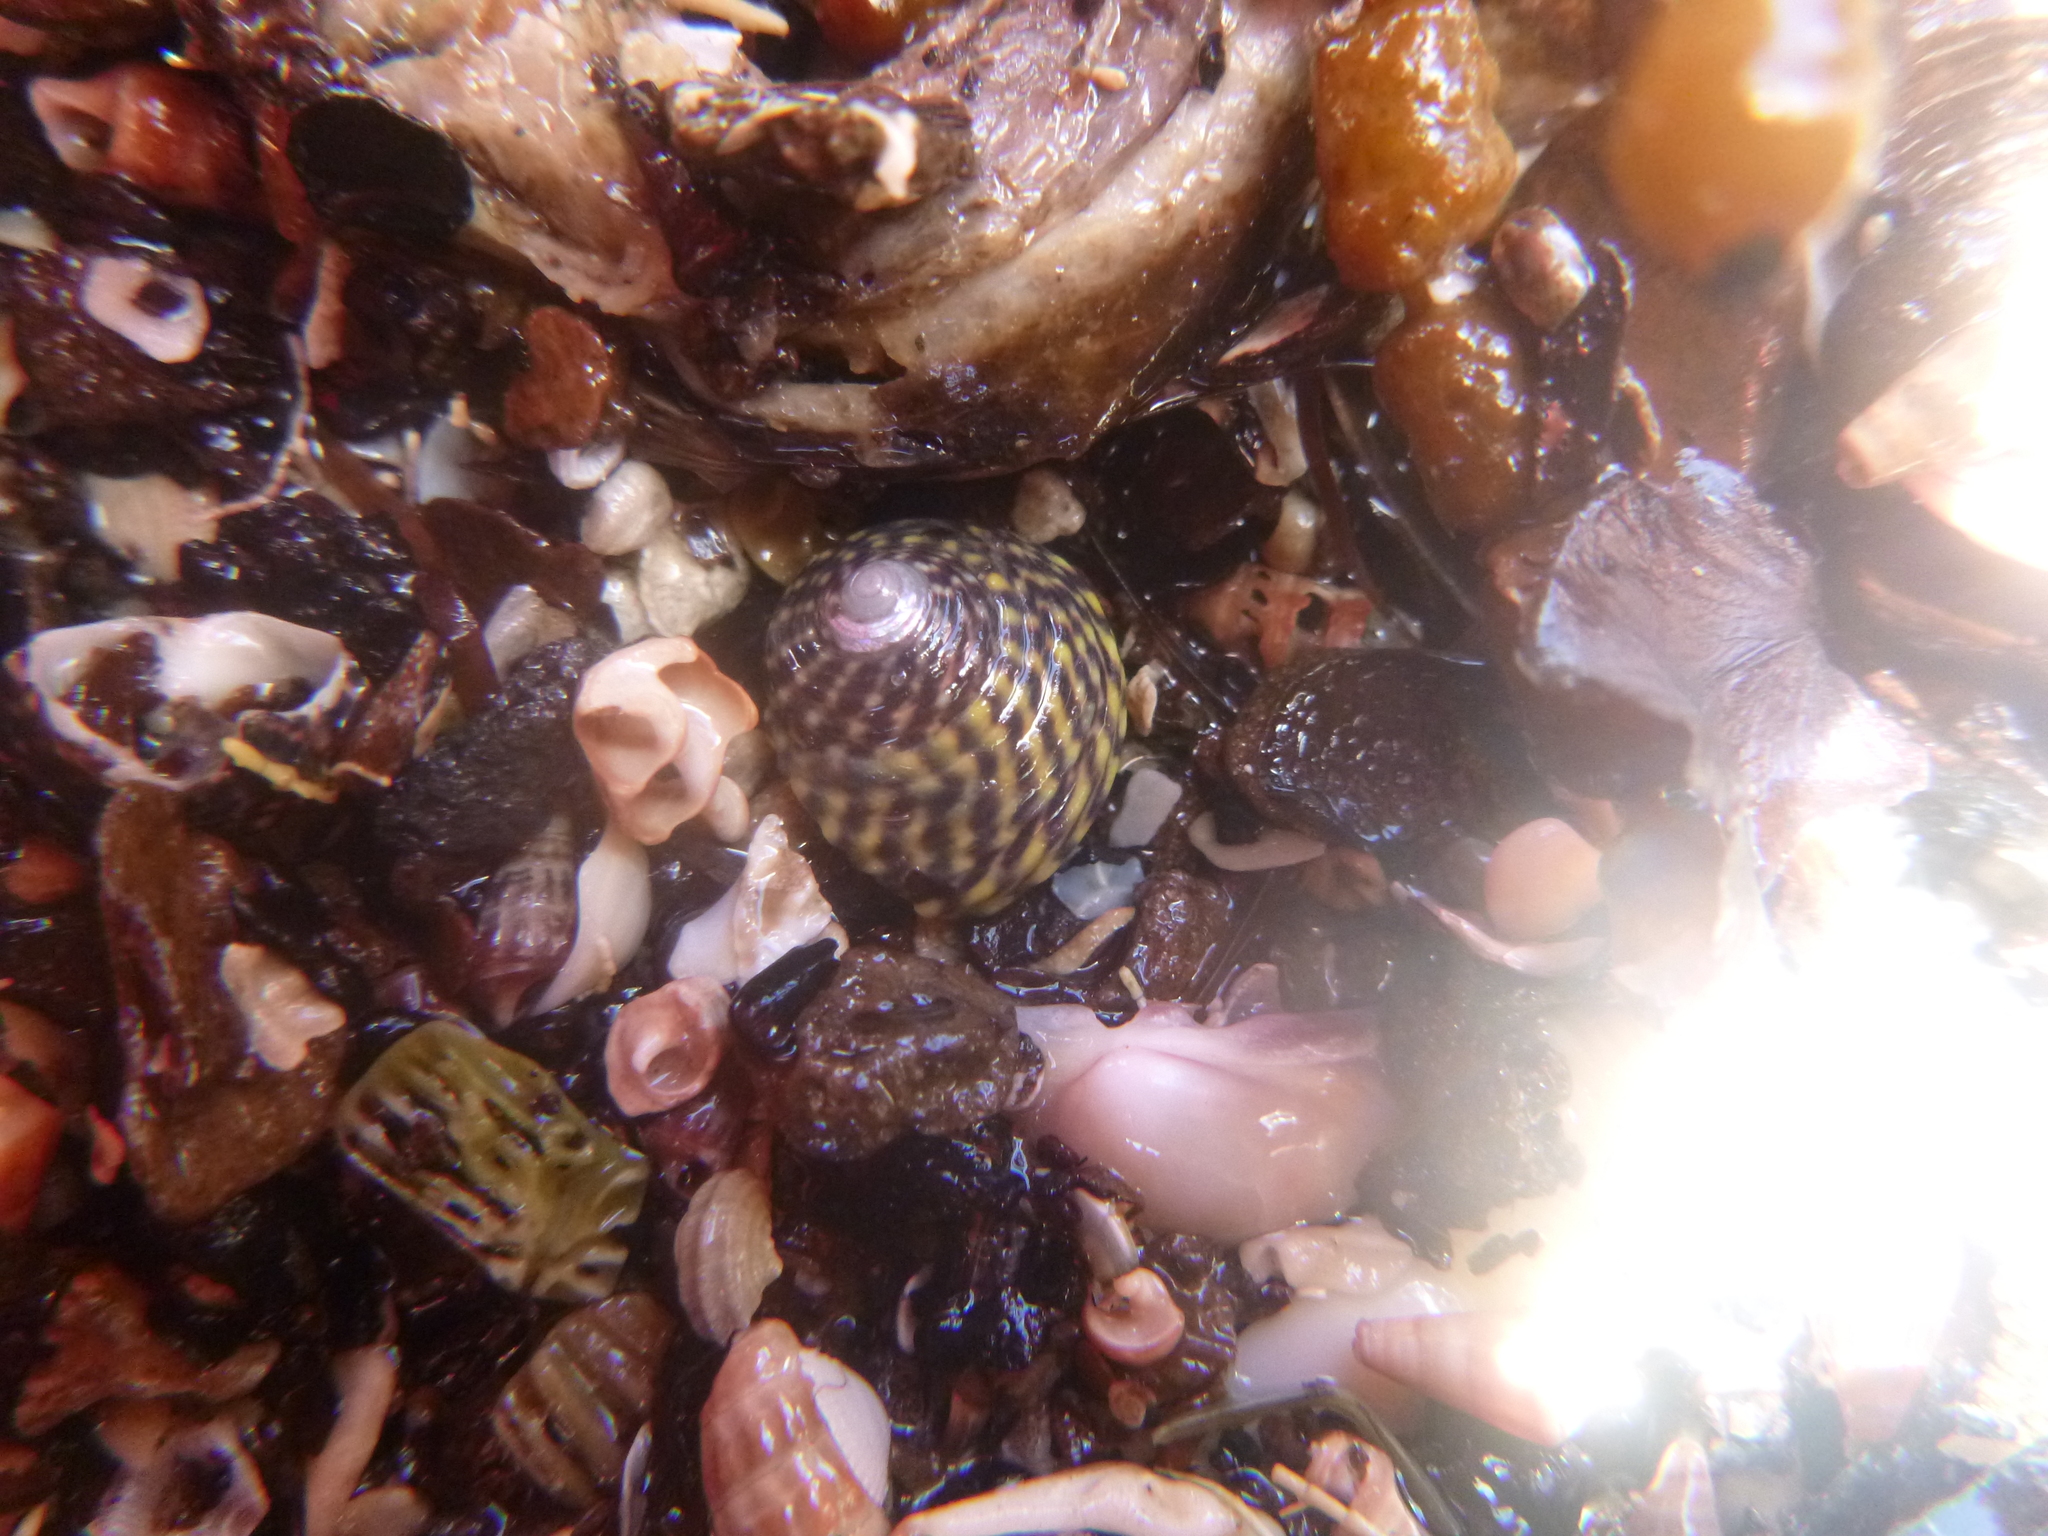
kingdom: Animalia
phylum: Mollusca
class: Gastropoda
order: Trochida
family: Trochidae
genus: Diloma
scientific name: Diloma subrostratum
